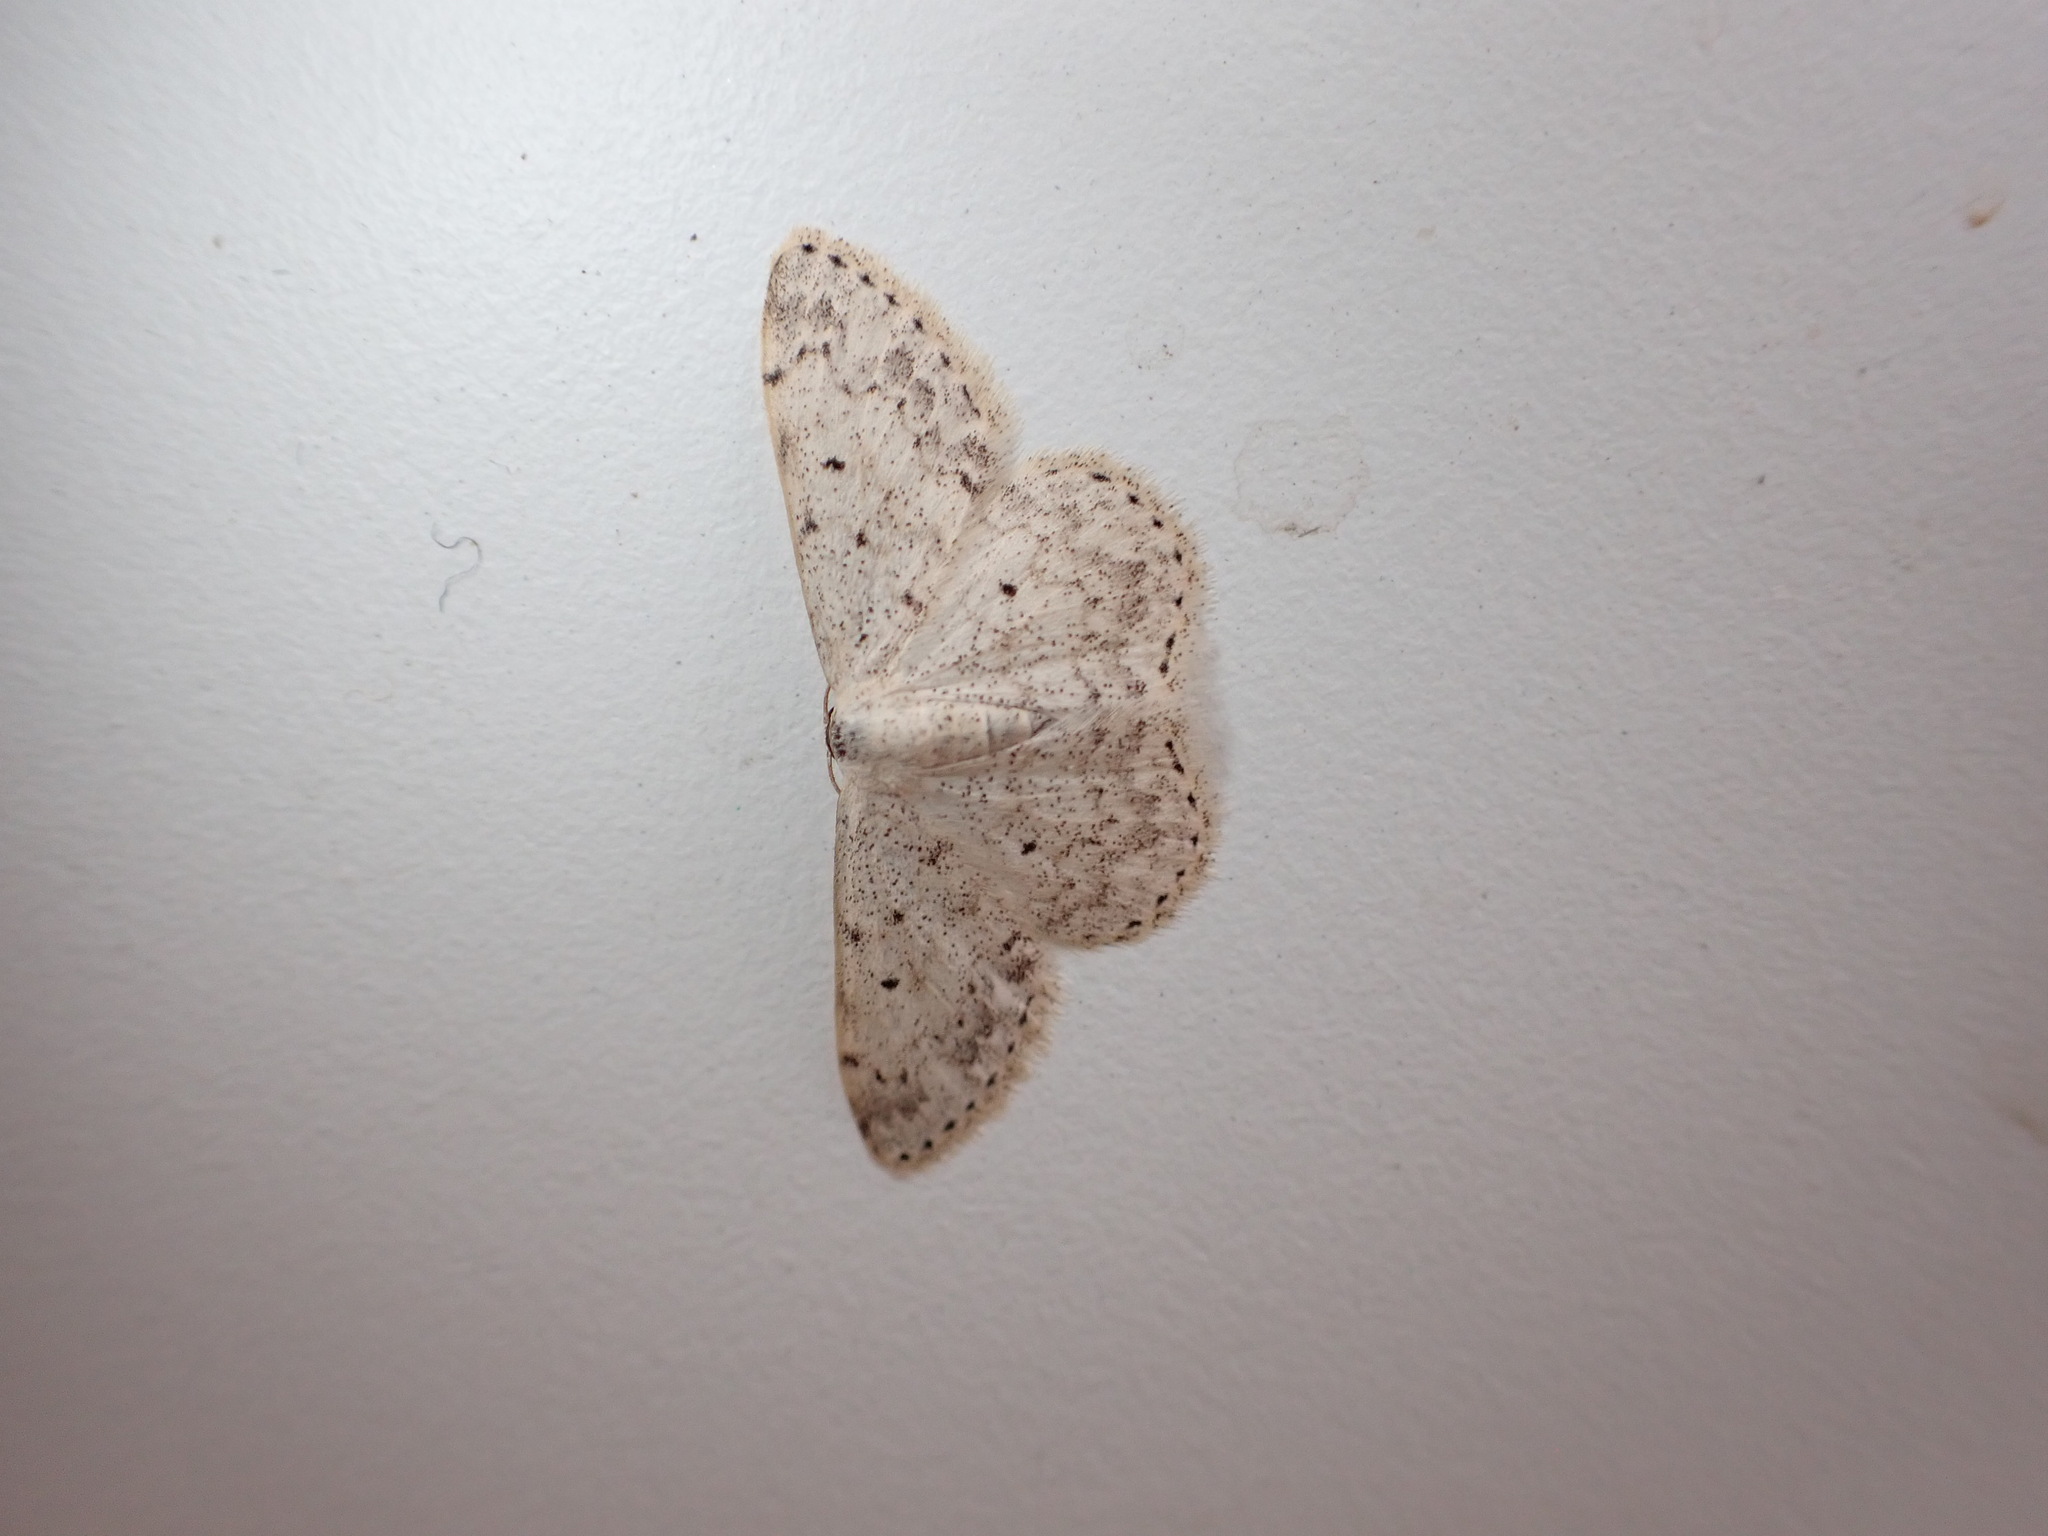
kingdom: Animalia
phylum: Arthropoda
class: Insecta
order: Lepidoptera
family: Geometridae
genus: Scopula
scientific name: Scopula marginepunctata
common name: Mullein wave
